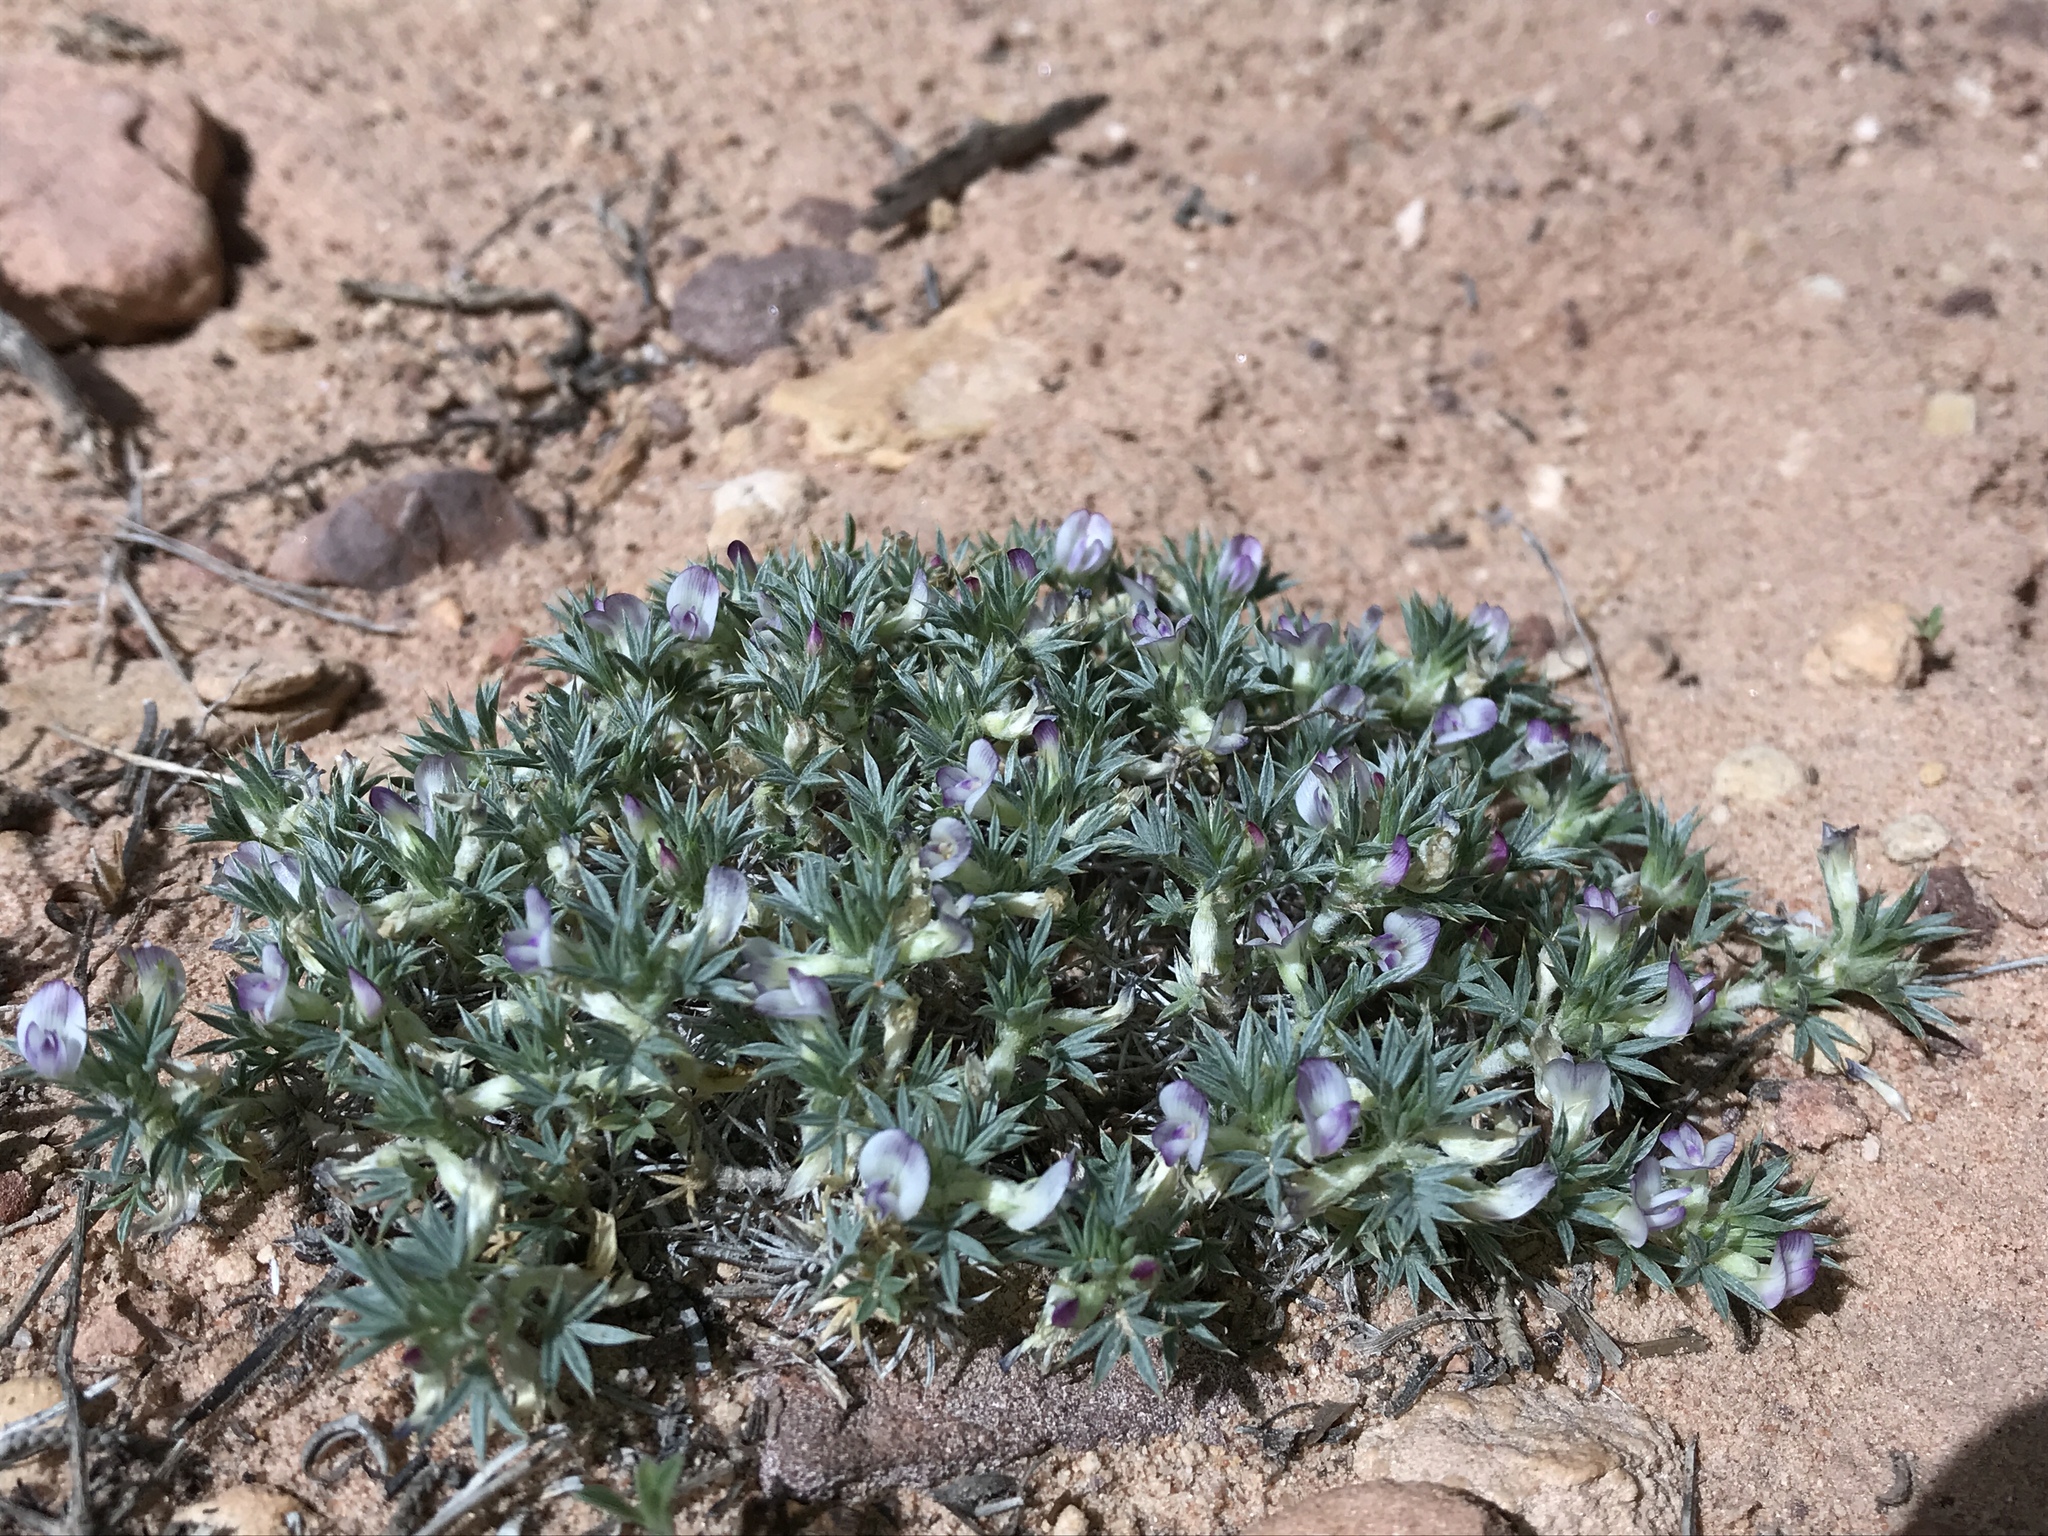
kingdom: Plantae
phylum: Tracheophyta
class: Magnoliopsida
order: Fabales
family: Fabaceae
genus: Astragalus
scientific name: Astragalus kentrophyta
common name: Prickly milk-vetch
